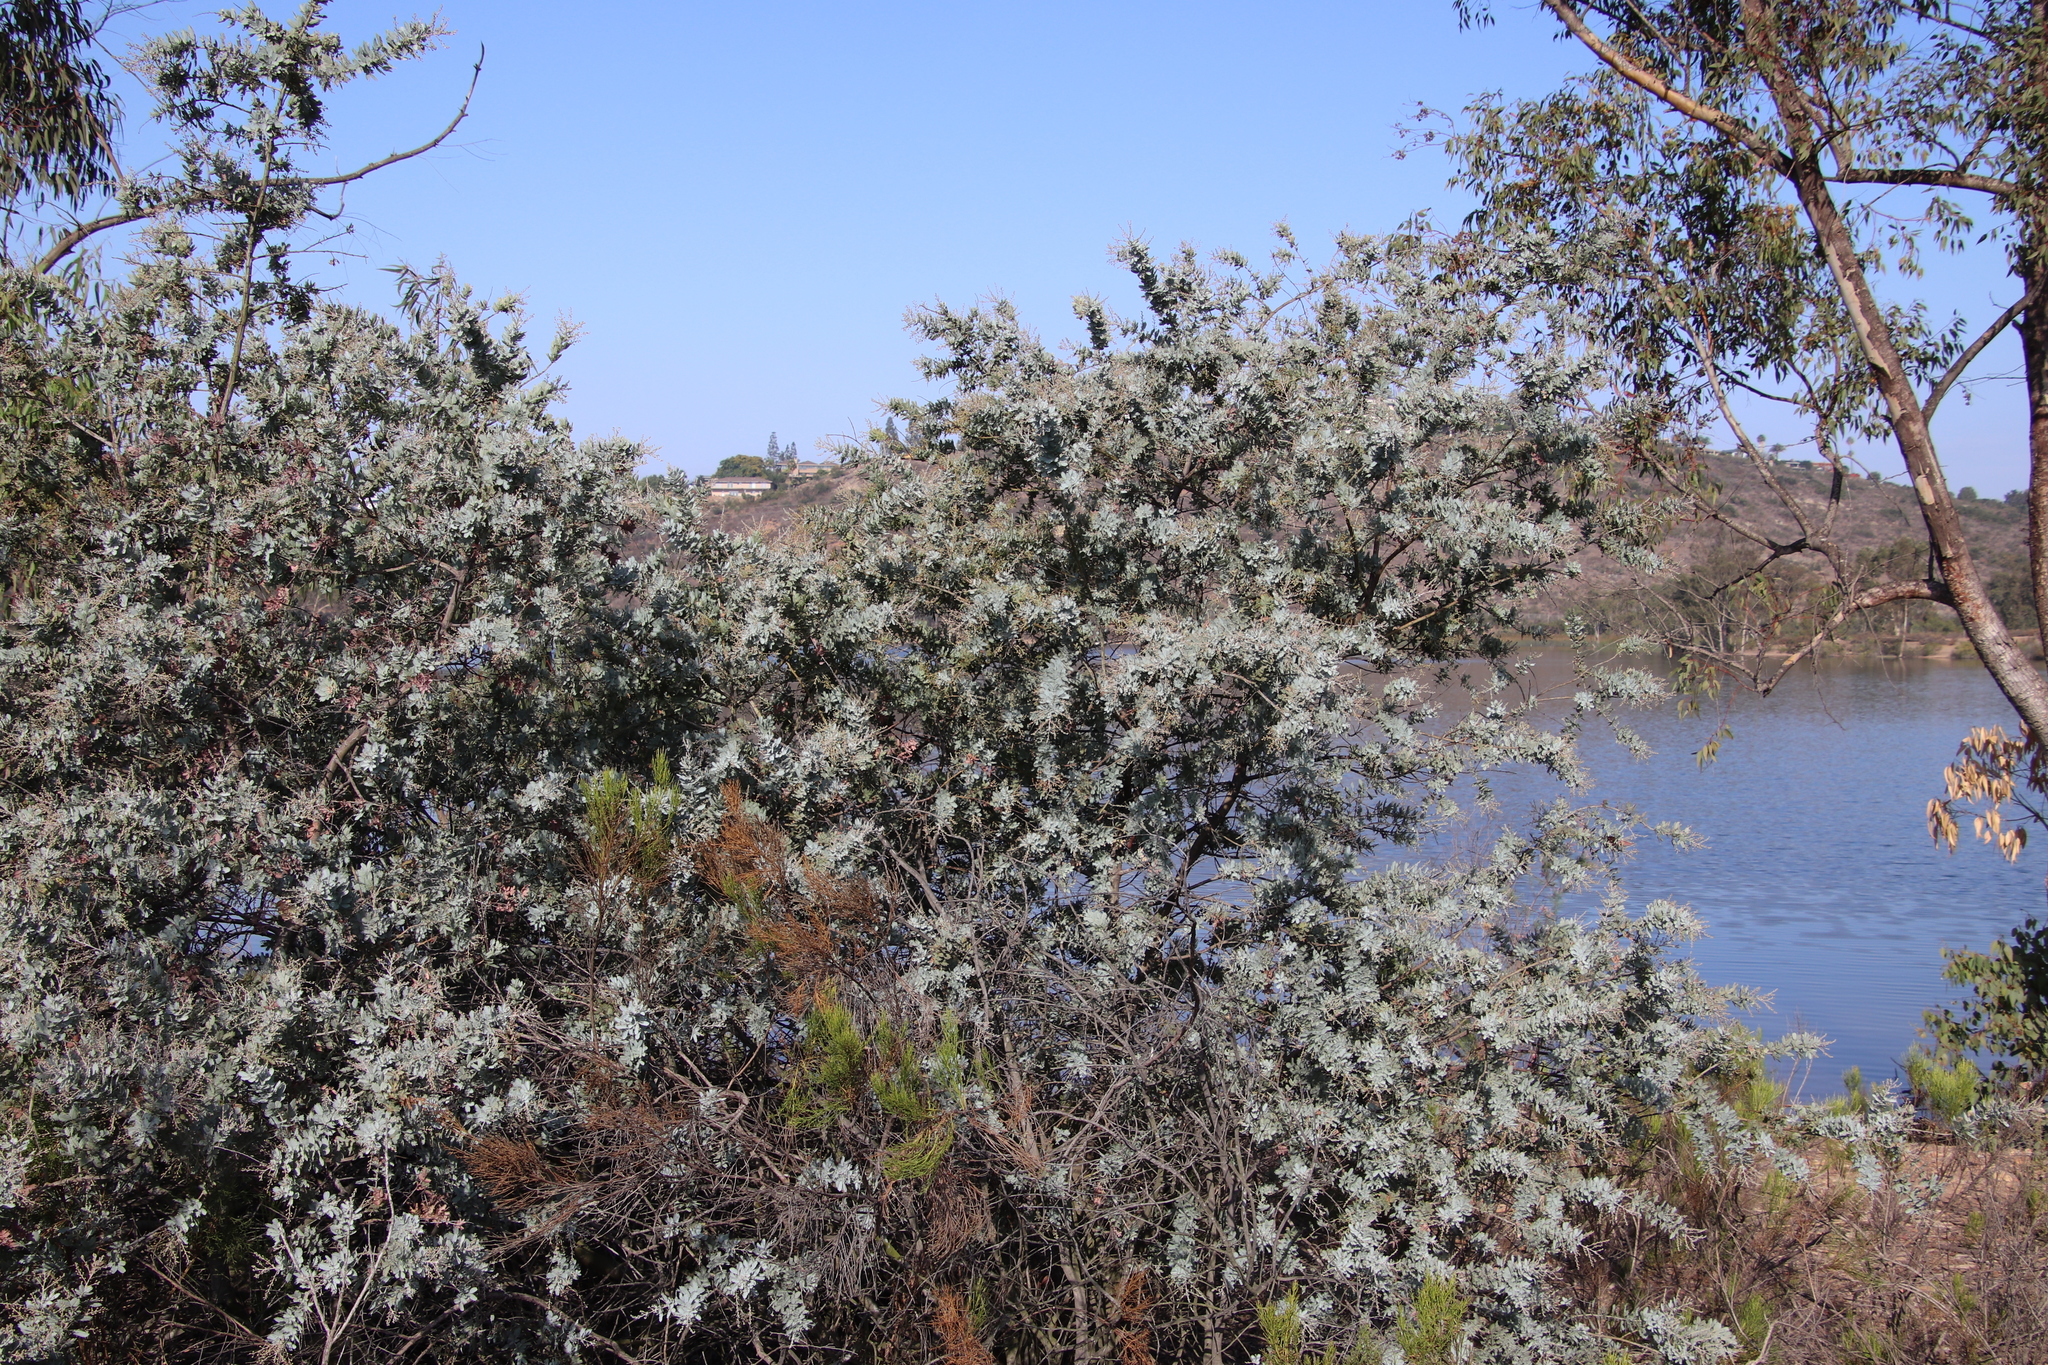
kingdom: Plantae
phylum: Tracheophyta
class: Magnoliopsida
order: Fabales
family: Fabaceae
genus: Acacia
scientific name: Acacia baileyana
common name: Cootamundra wattle
